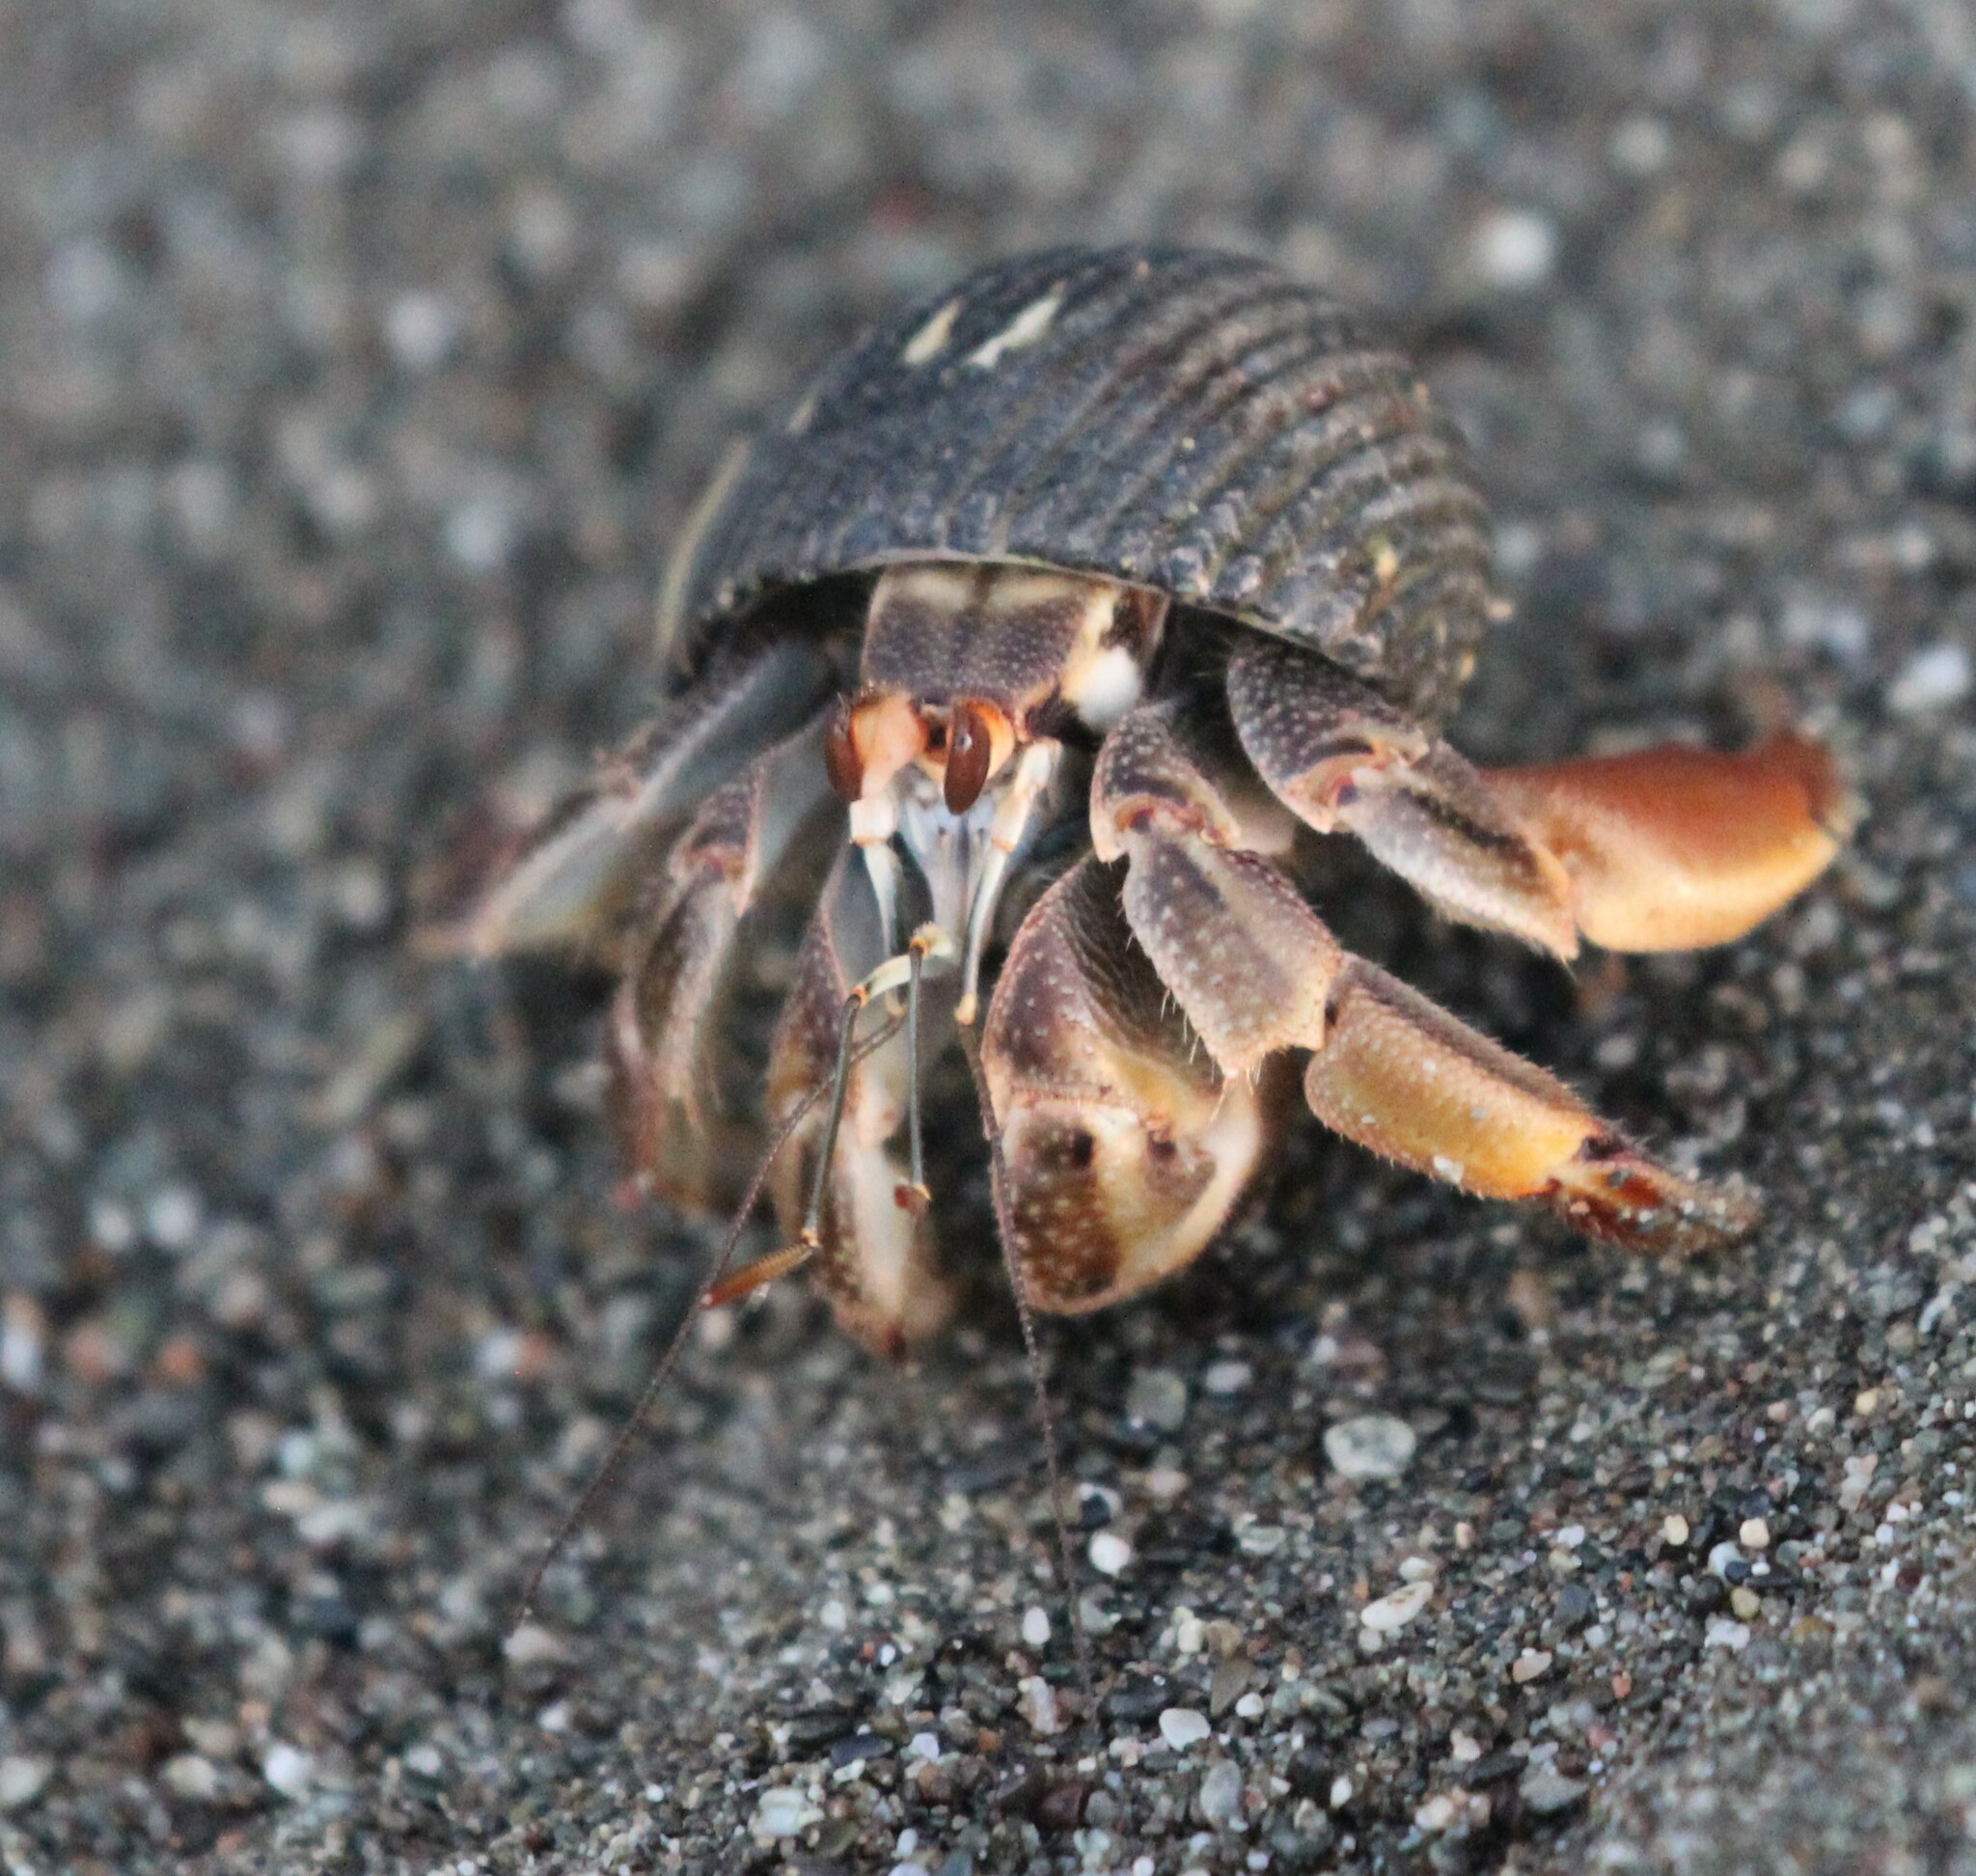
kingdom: Animalia
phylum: Arthropoda
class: Malacostraca
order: Decapoda
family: Coenobitidae
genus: Coenobita
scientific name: Coenobita compressus
